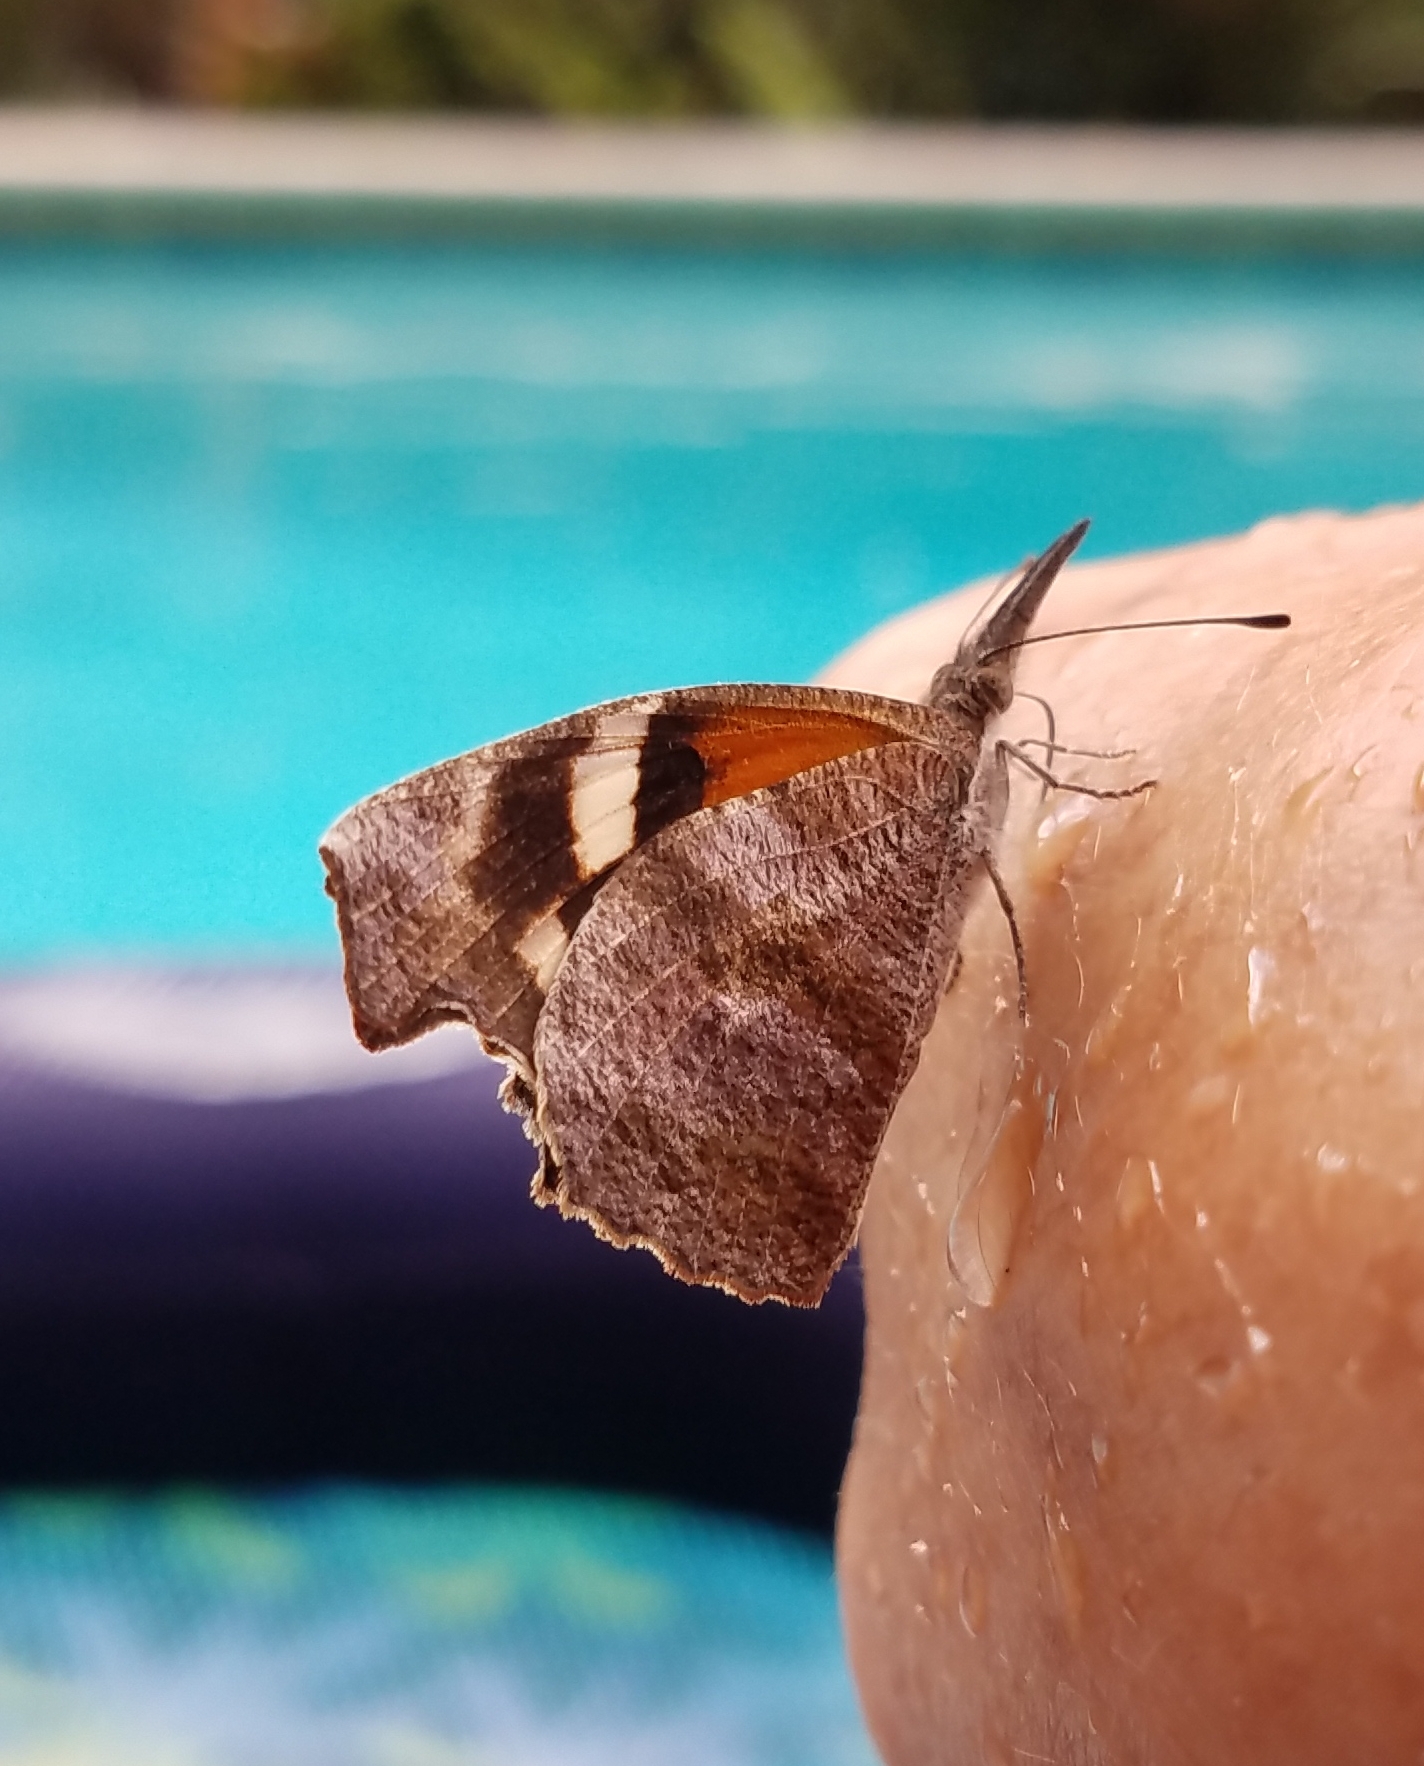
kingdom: Animalia
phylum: Arthropoda
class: Insecta
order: Lepidoptera
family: Nymphalidae
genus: Libytheana
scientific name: Libytheana carinenta
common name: American snout
